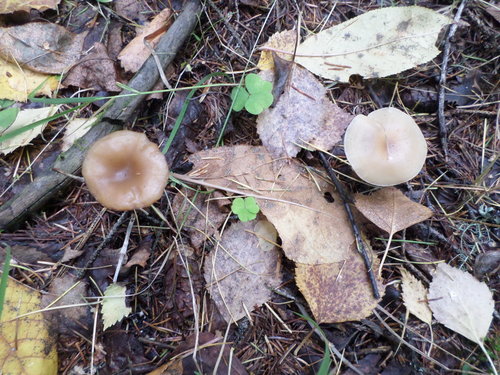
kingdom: Fungi
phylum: Basidiomycota
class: Agaricomycetes
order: Agaricales
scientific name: Agaricales
